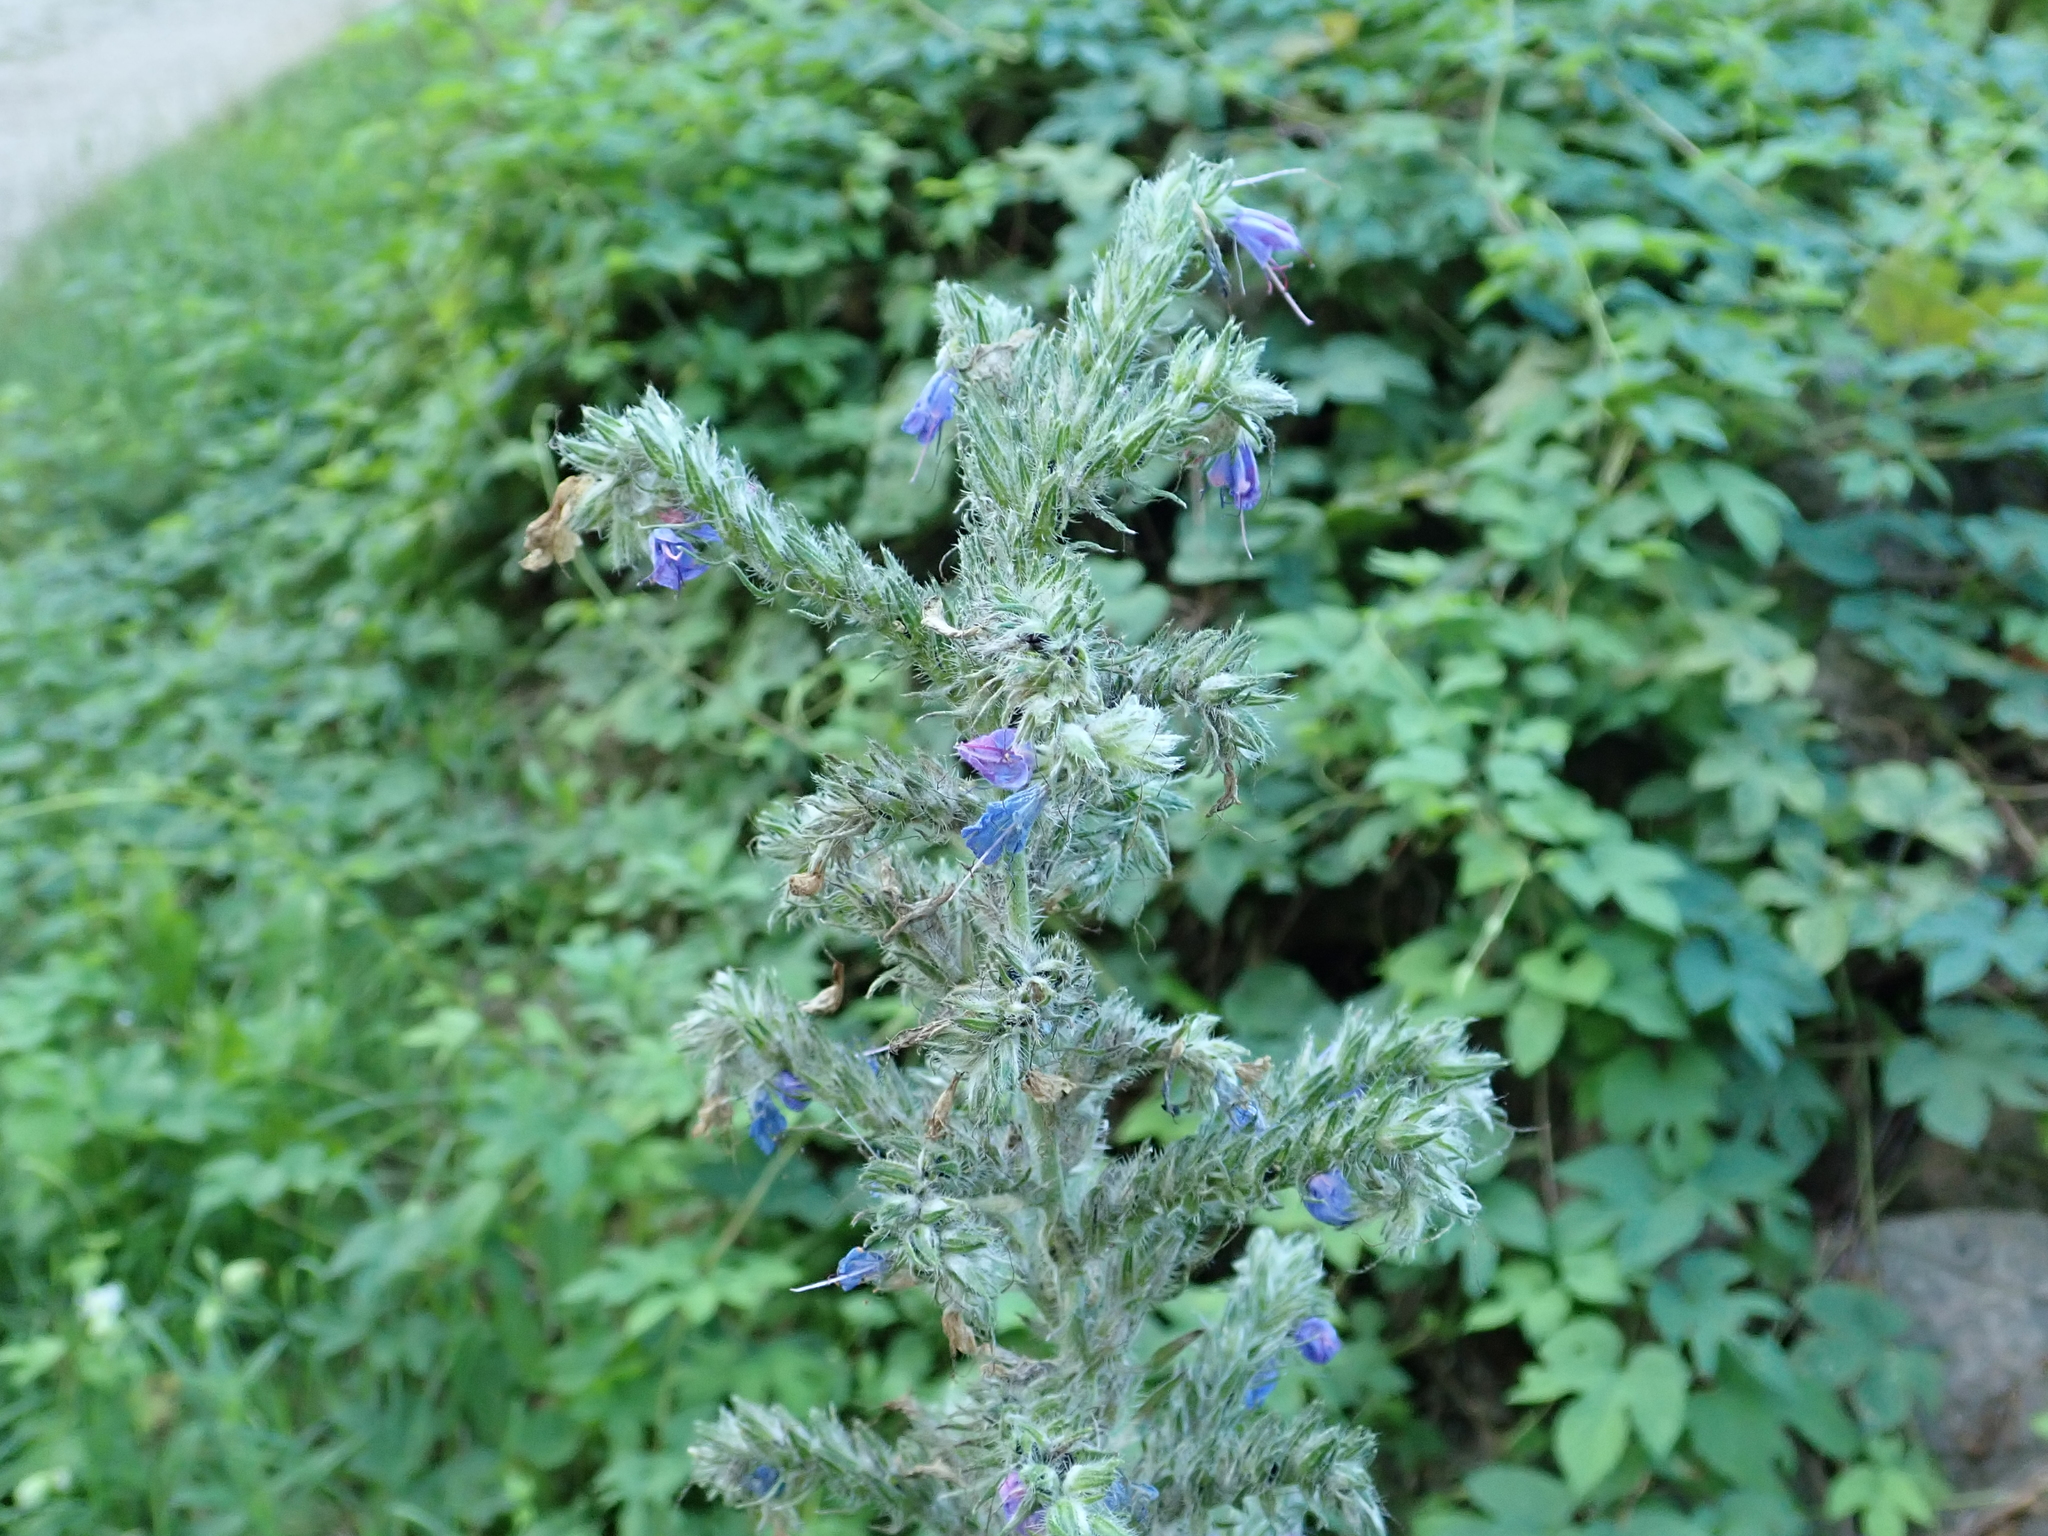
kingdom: Plantae
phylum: Tracheophyta
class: Magnoliopsida
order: Boraginales
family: Boraginaceae
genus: Echium
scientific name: Echium vulgare
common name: Common viper's bugloss
